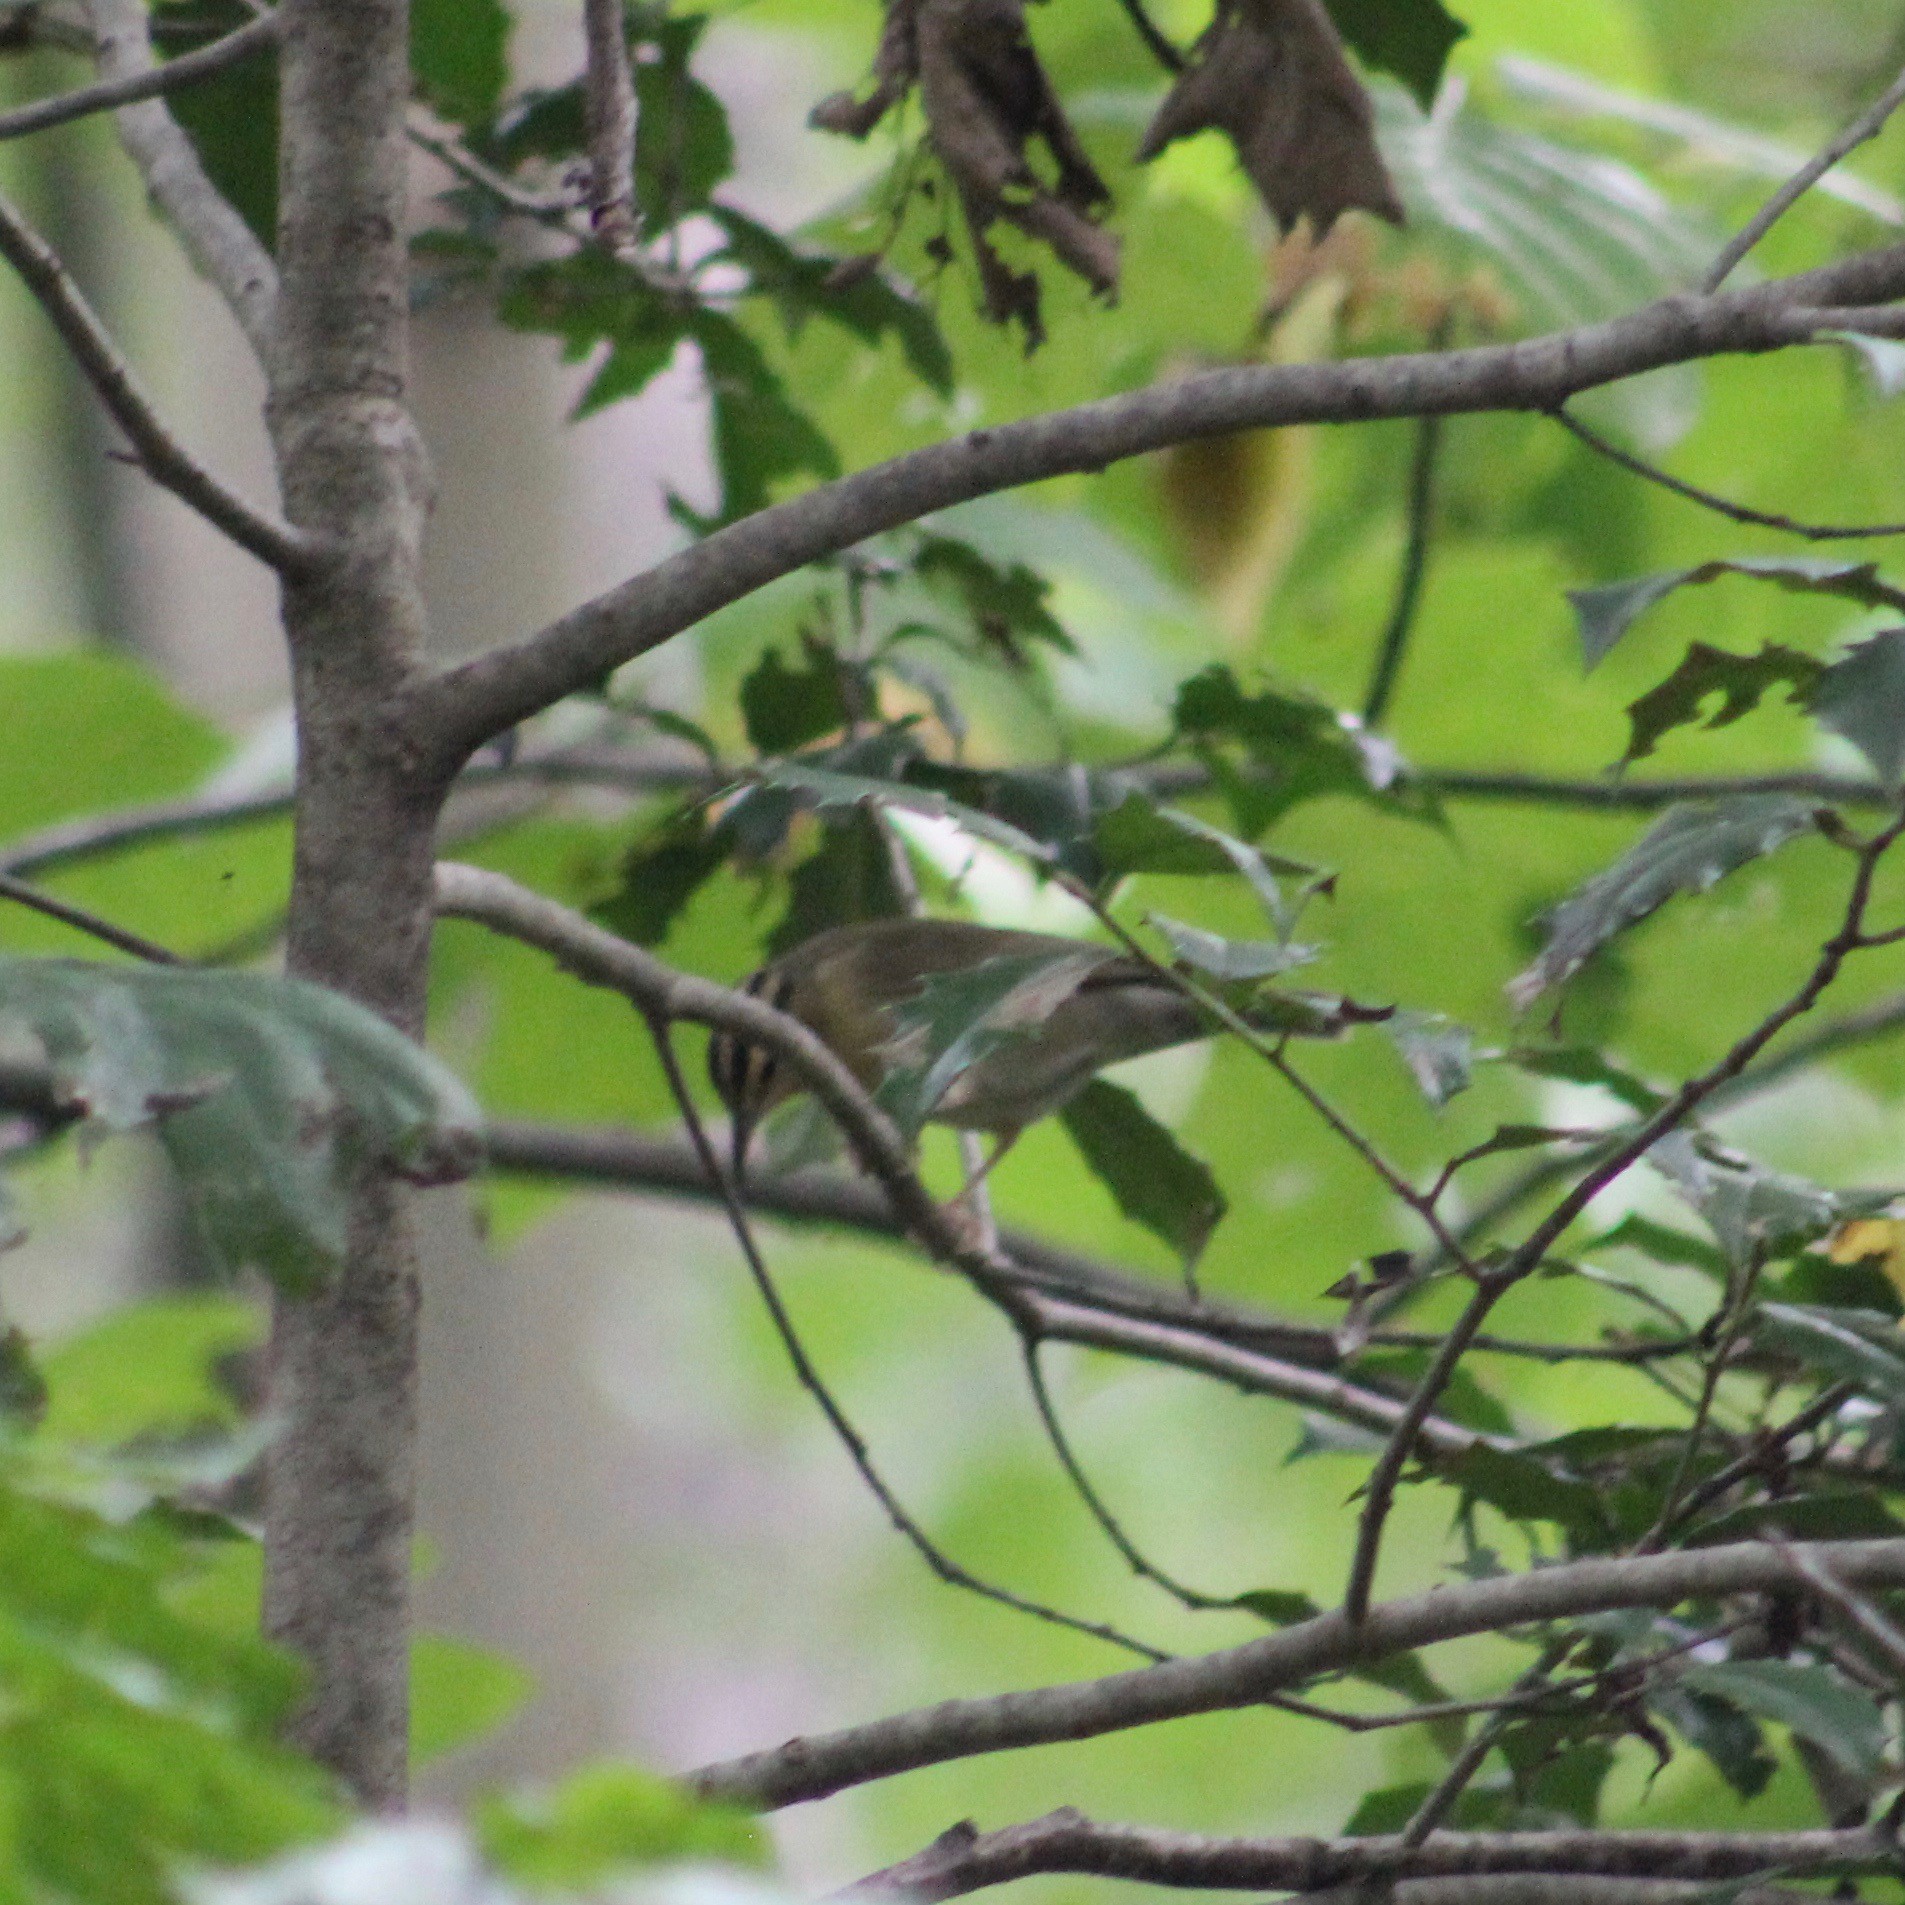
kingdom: Animalia
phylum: Chordata
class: Aves
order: Passeriformes
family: Parulidae
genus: Helmitheros
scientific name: Helmitheros vermivorum
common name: Worm-eating warbler
